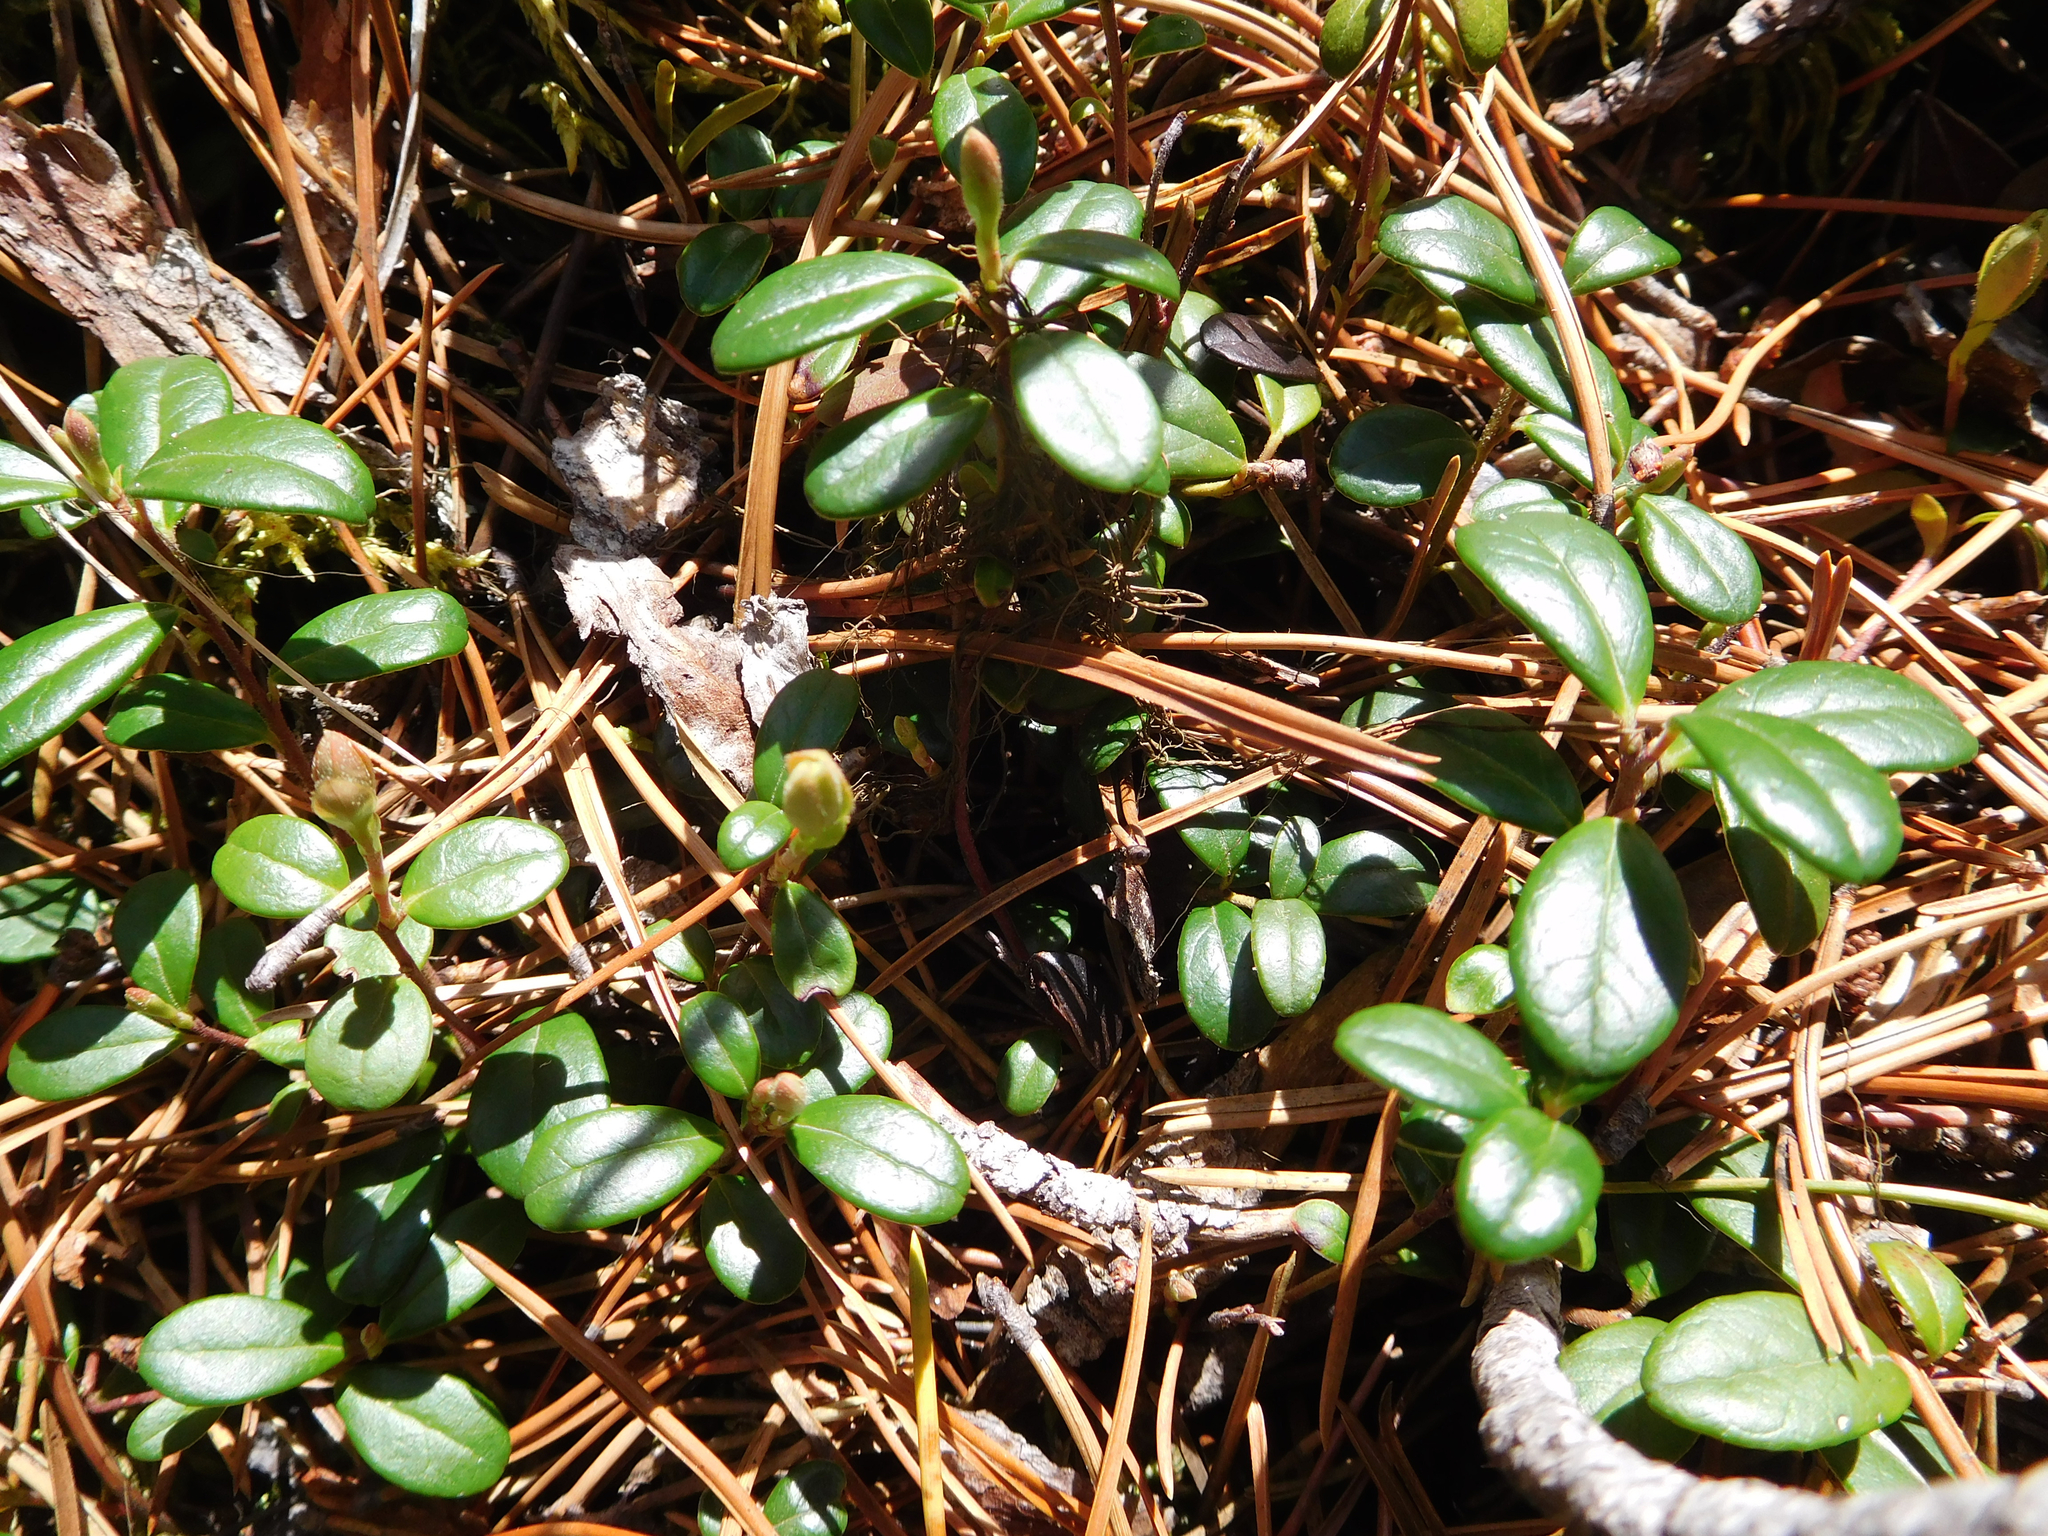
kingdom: Plantae
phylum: Tracheophyta
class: Magnoliopsida
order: Ericales
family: Ericaceae
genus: Vaccinium
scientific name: Vaccinium vitis-idaea
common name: Cowberry
